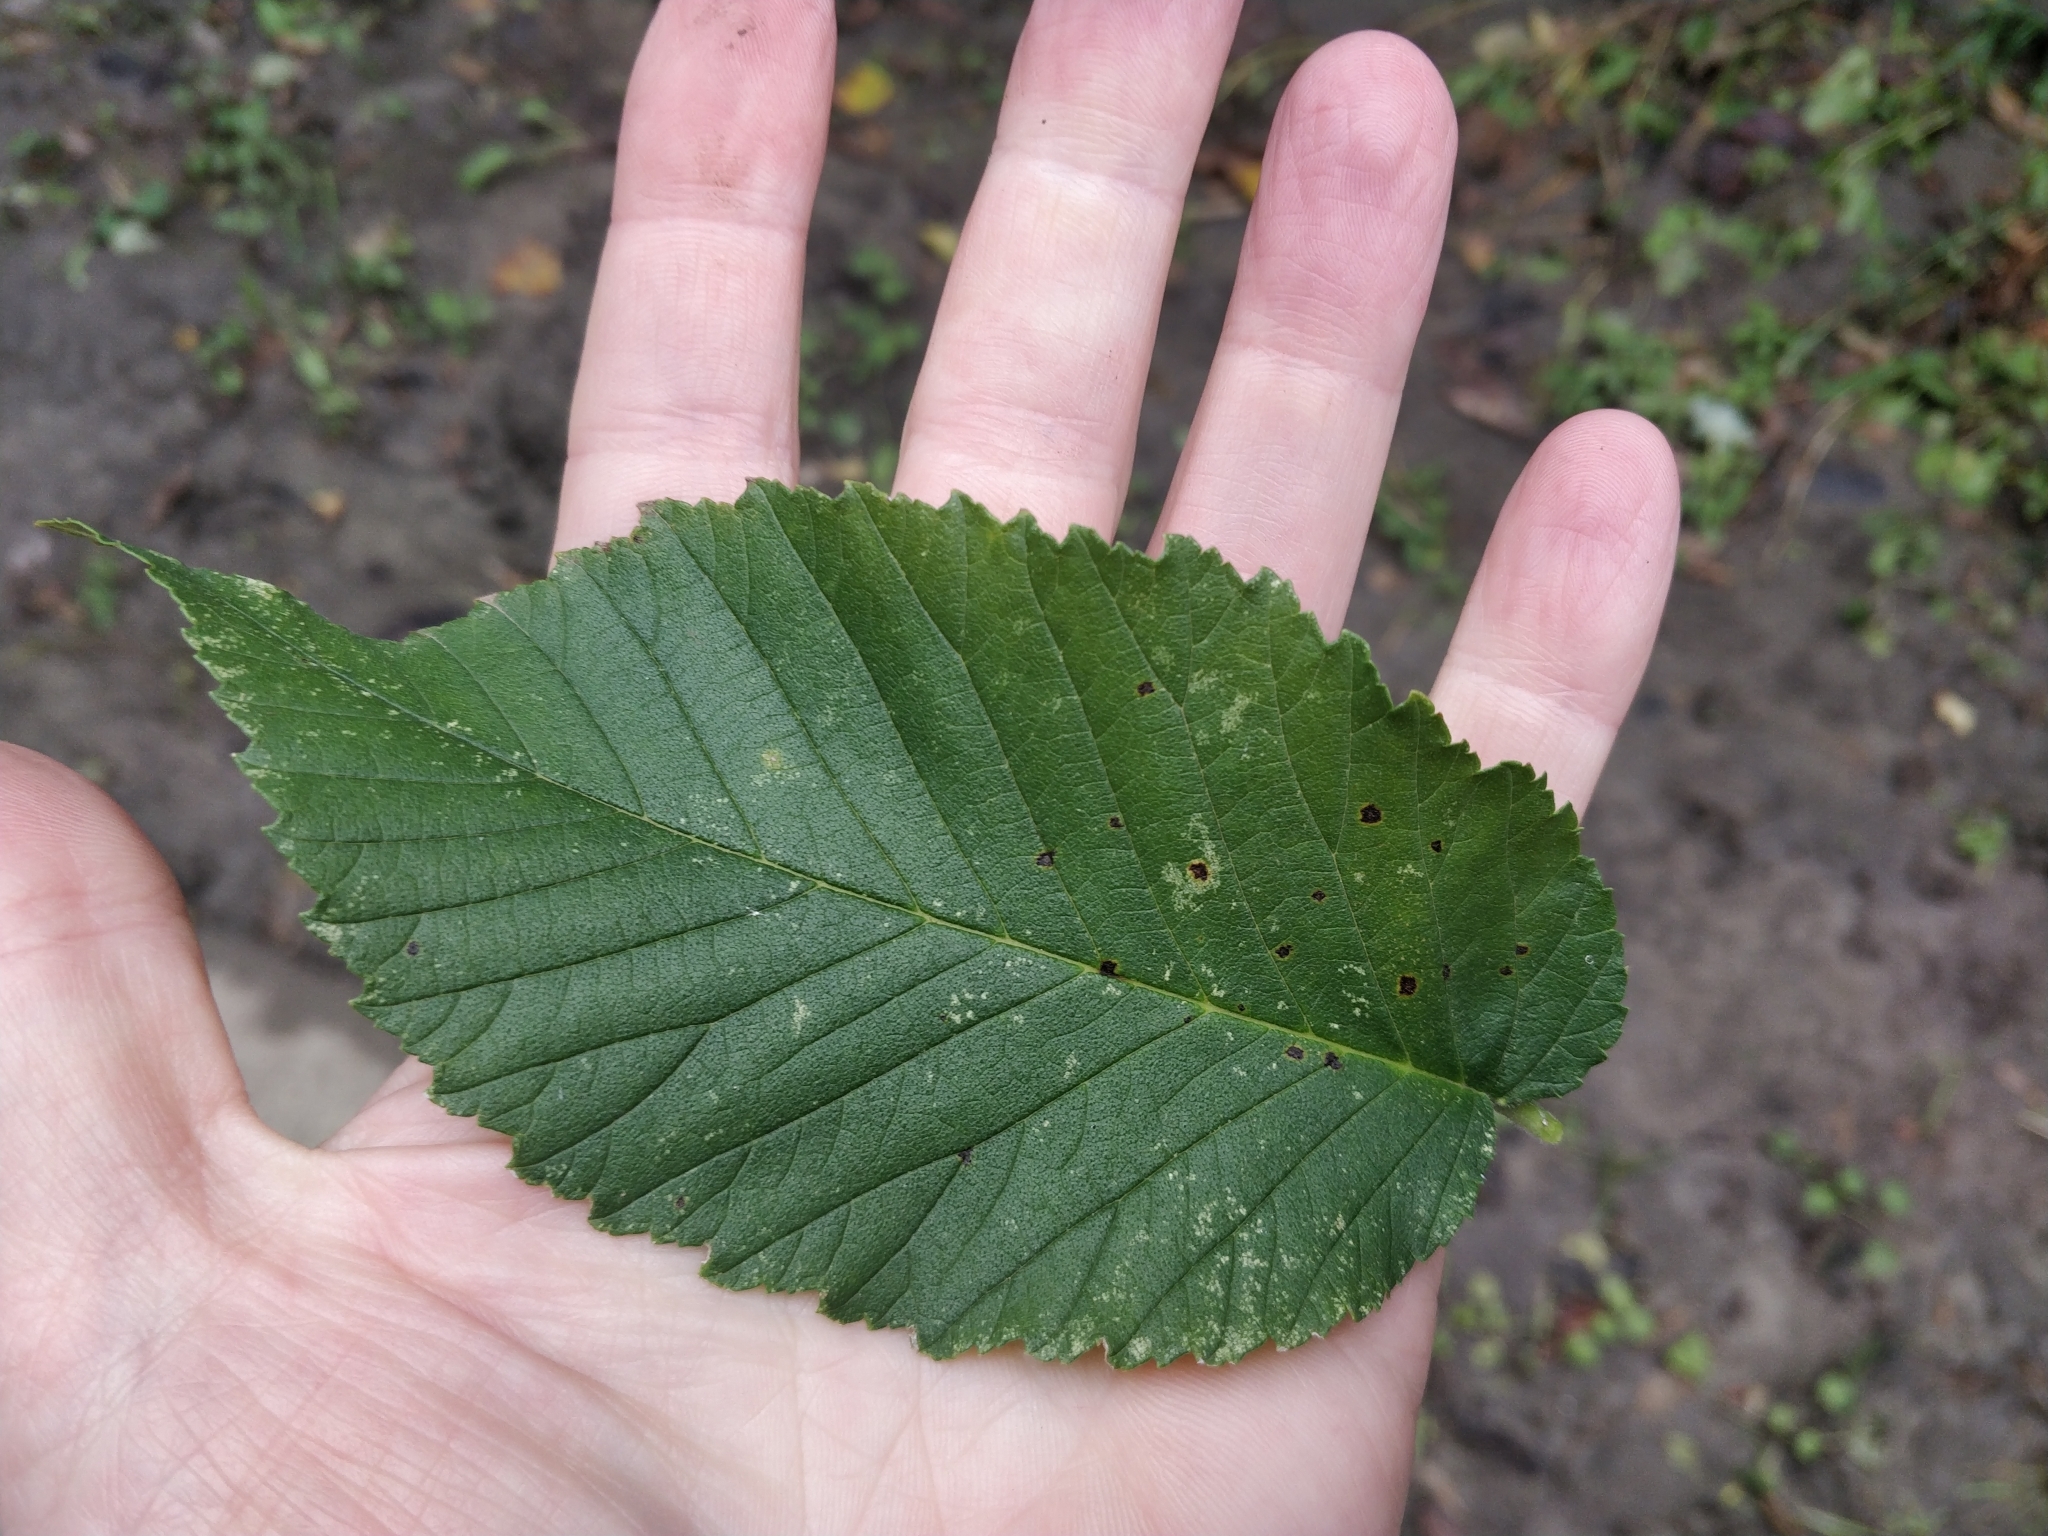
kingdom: Plantae
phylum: Tracheophyta
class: Magnoliopsida
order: Rosales
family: Ulmaceae
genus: Ulmus
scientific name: Ulmus rubra
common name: Slippery elm
